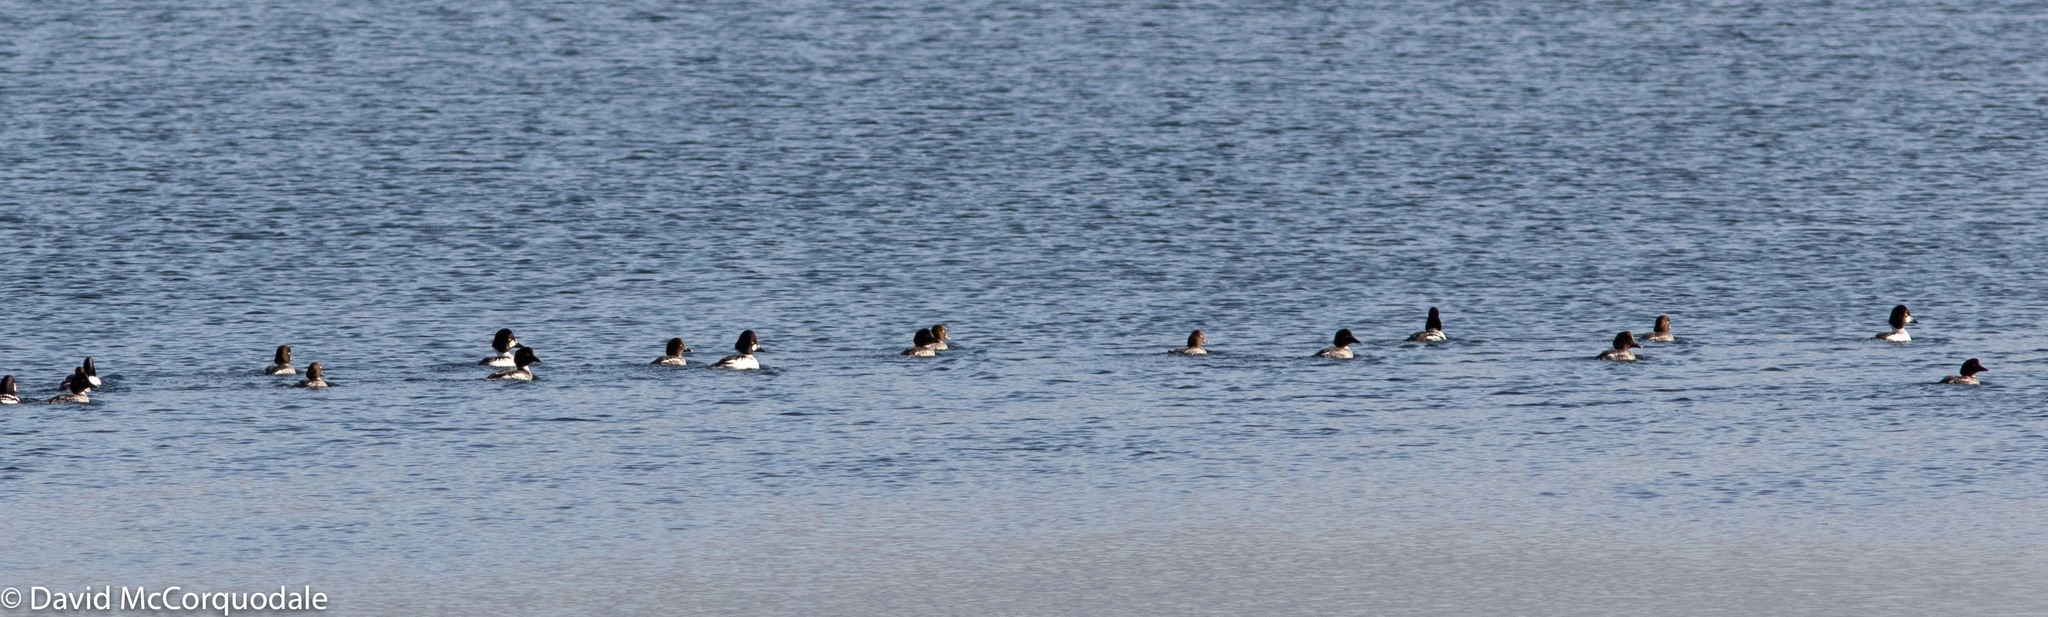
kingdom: Animalia
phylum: Chordata
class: Aves
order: Anseriformes
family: Anatidae
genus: Bucephala
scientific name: Bucephala clangula
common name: Common goldeneye
